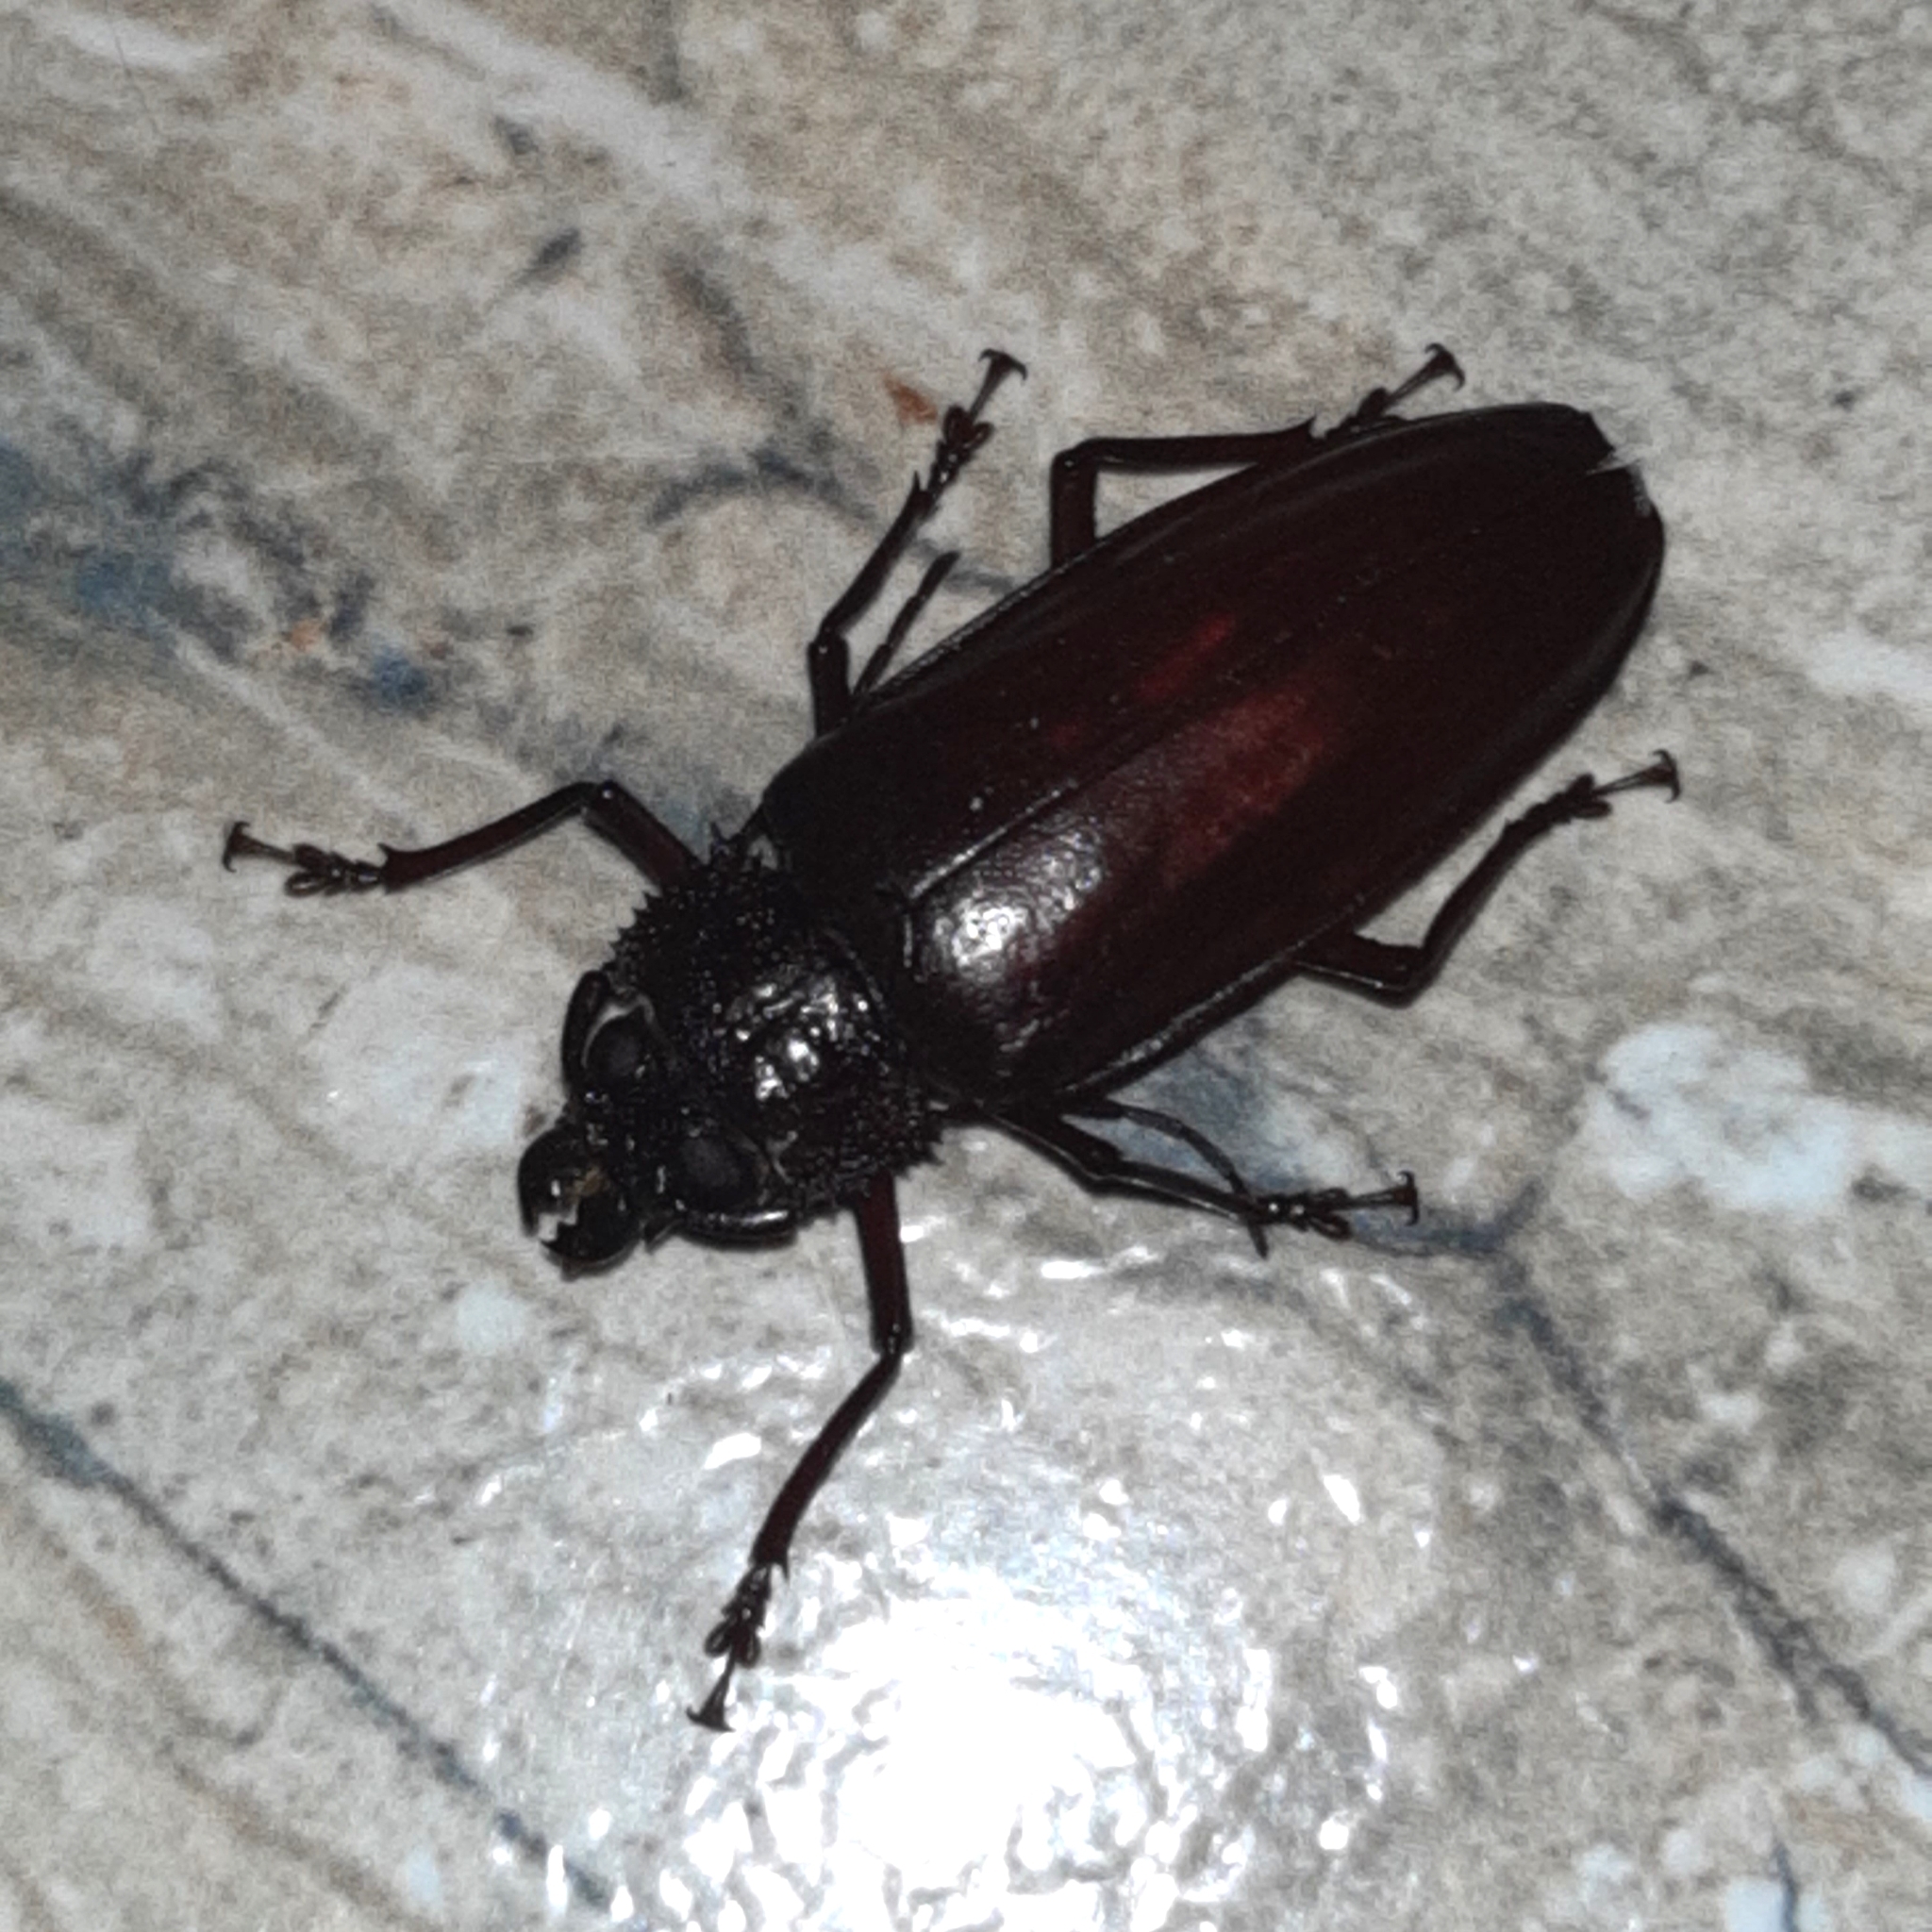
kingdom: Animalia
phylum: Arthropoda
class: Insecta
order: Coleoptera
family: Cerambycidae
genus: Mallodonopsis
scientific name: Mallodonopsis mexicanus
